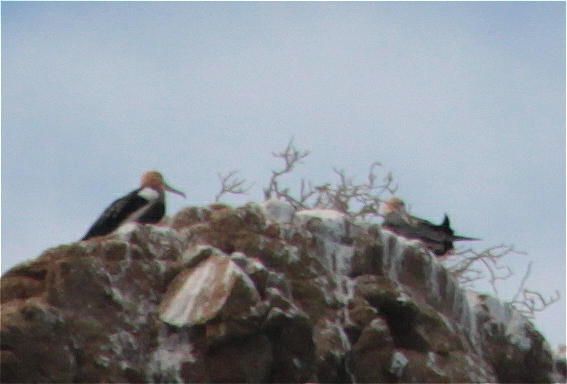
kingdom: Animalia
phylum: Chordata
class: Aves
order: Suliformes
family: Fregatidae
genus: Fregata
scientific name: Fregata minor
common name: Great frigatebird
